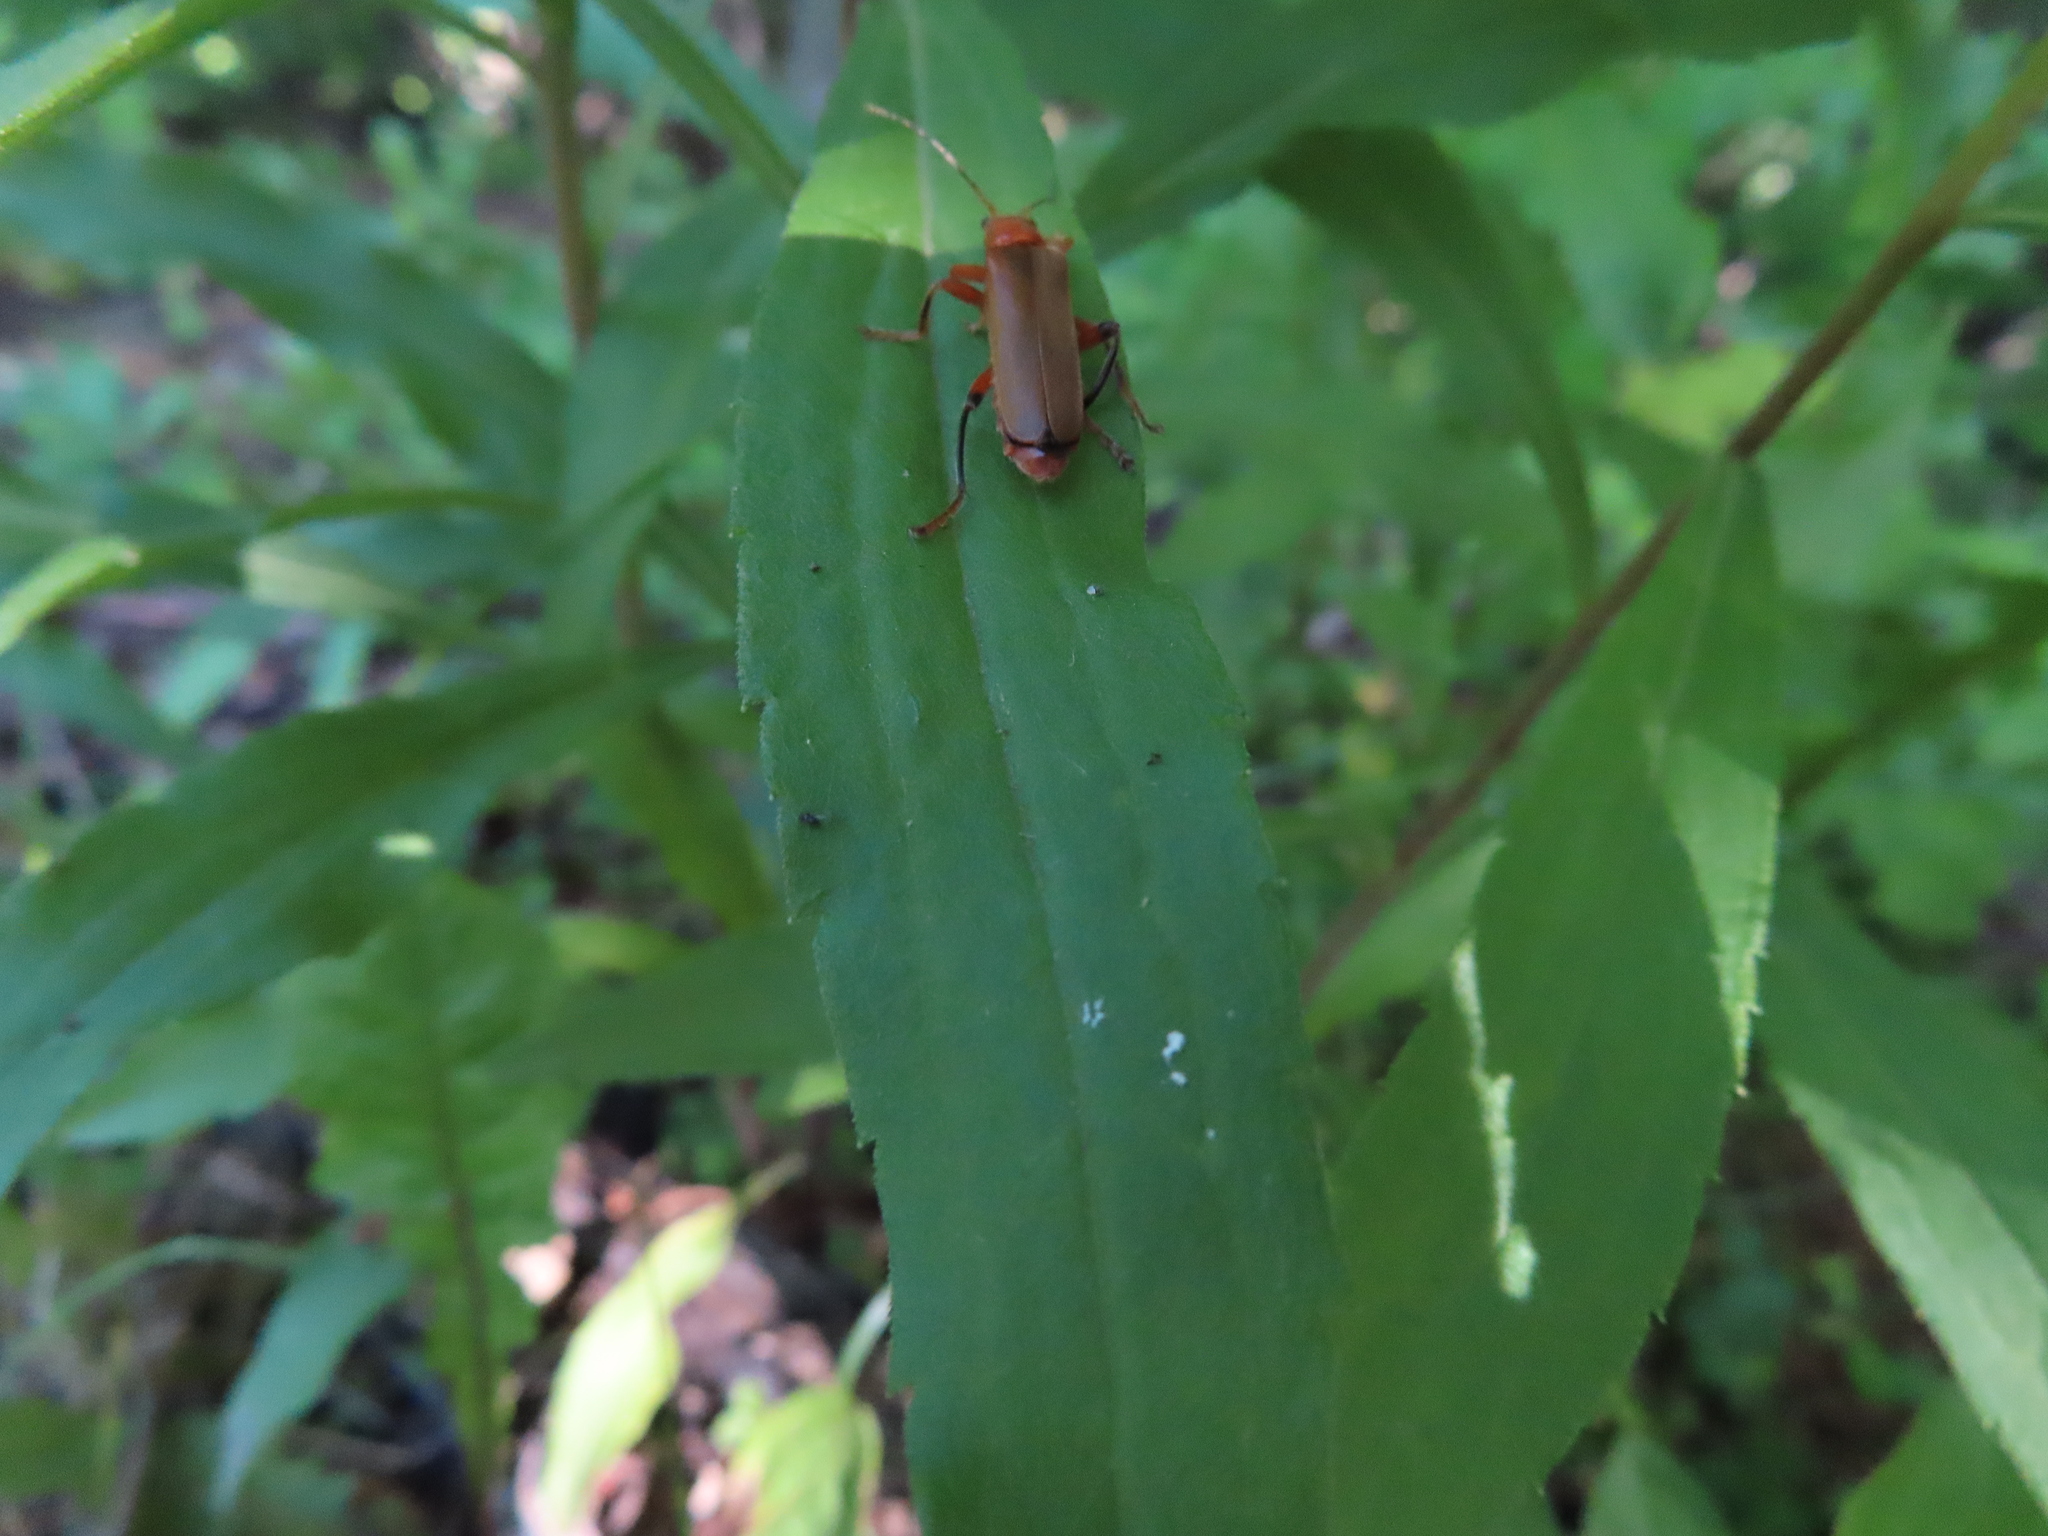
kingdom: Animalia
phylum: Arthropoda
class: Insecta
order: Coleoptera
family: Cantharidae
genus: Cantharis
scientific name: Cantharis livida
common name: Livid soldier beetle
